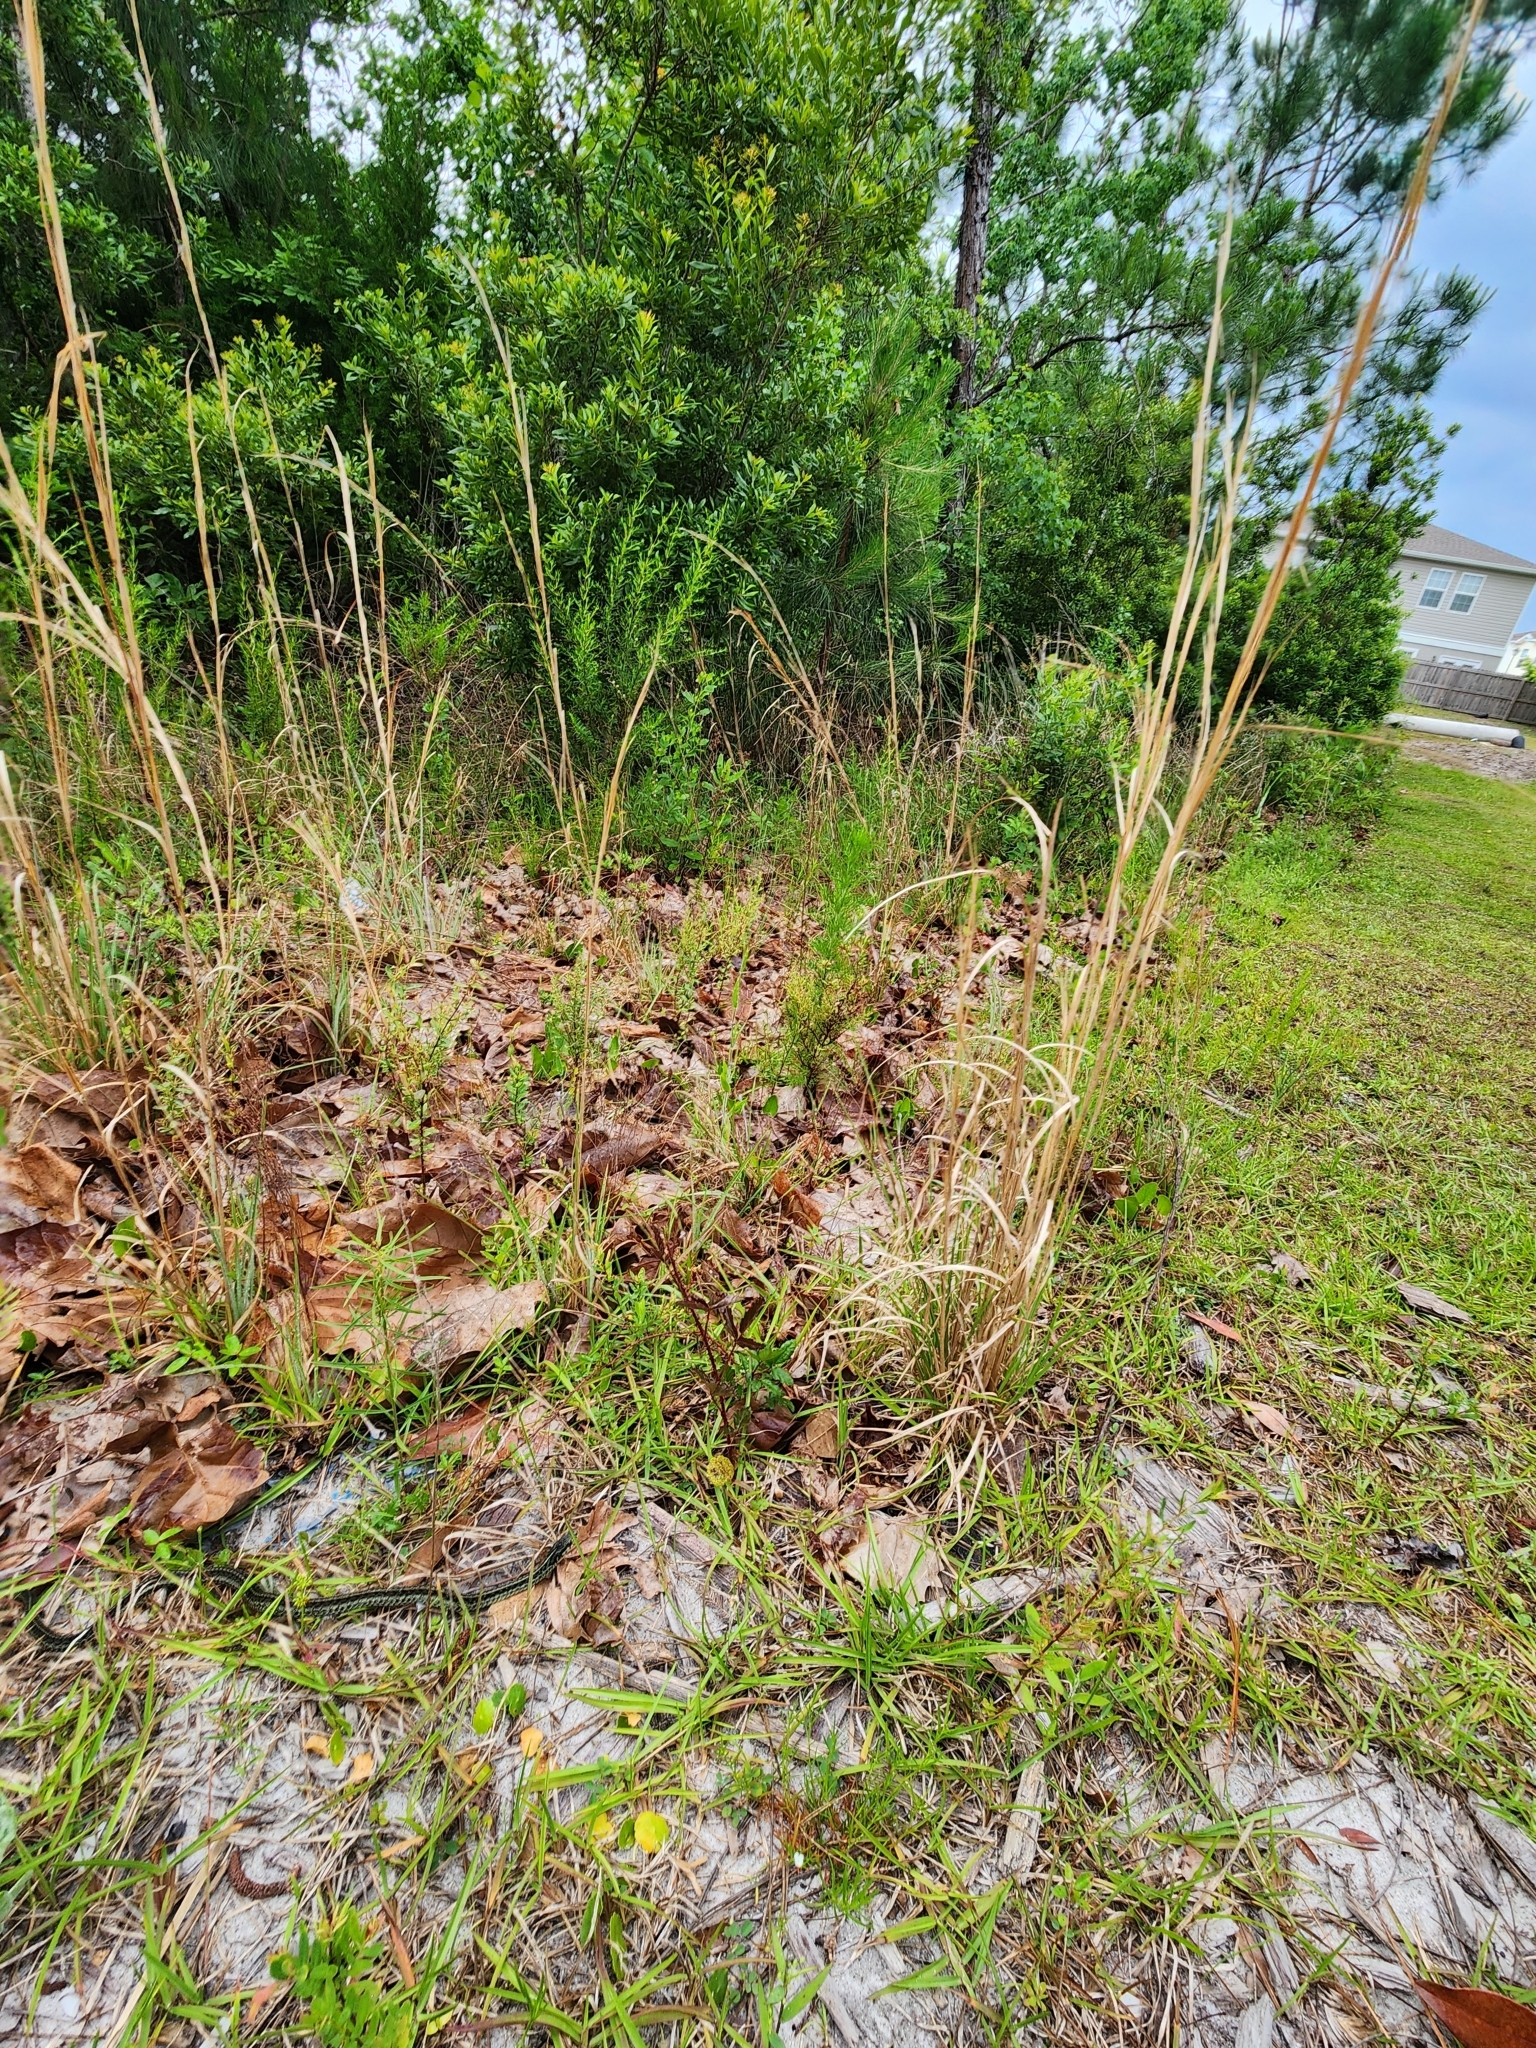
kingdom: Animalia
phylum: Chordata
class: Squamata
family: Colubridae
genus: Thamnophis
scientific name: Thamnophis sirtalis
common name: Common garter snake
